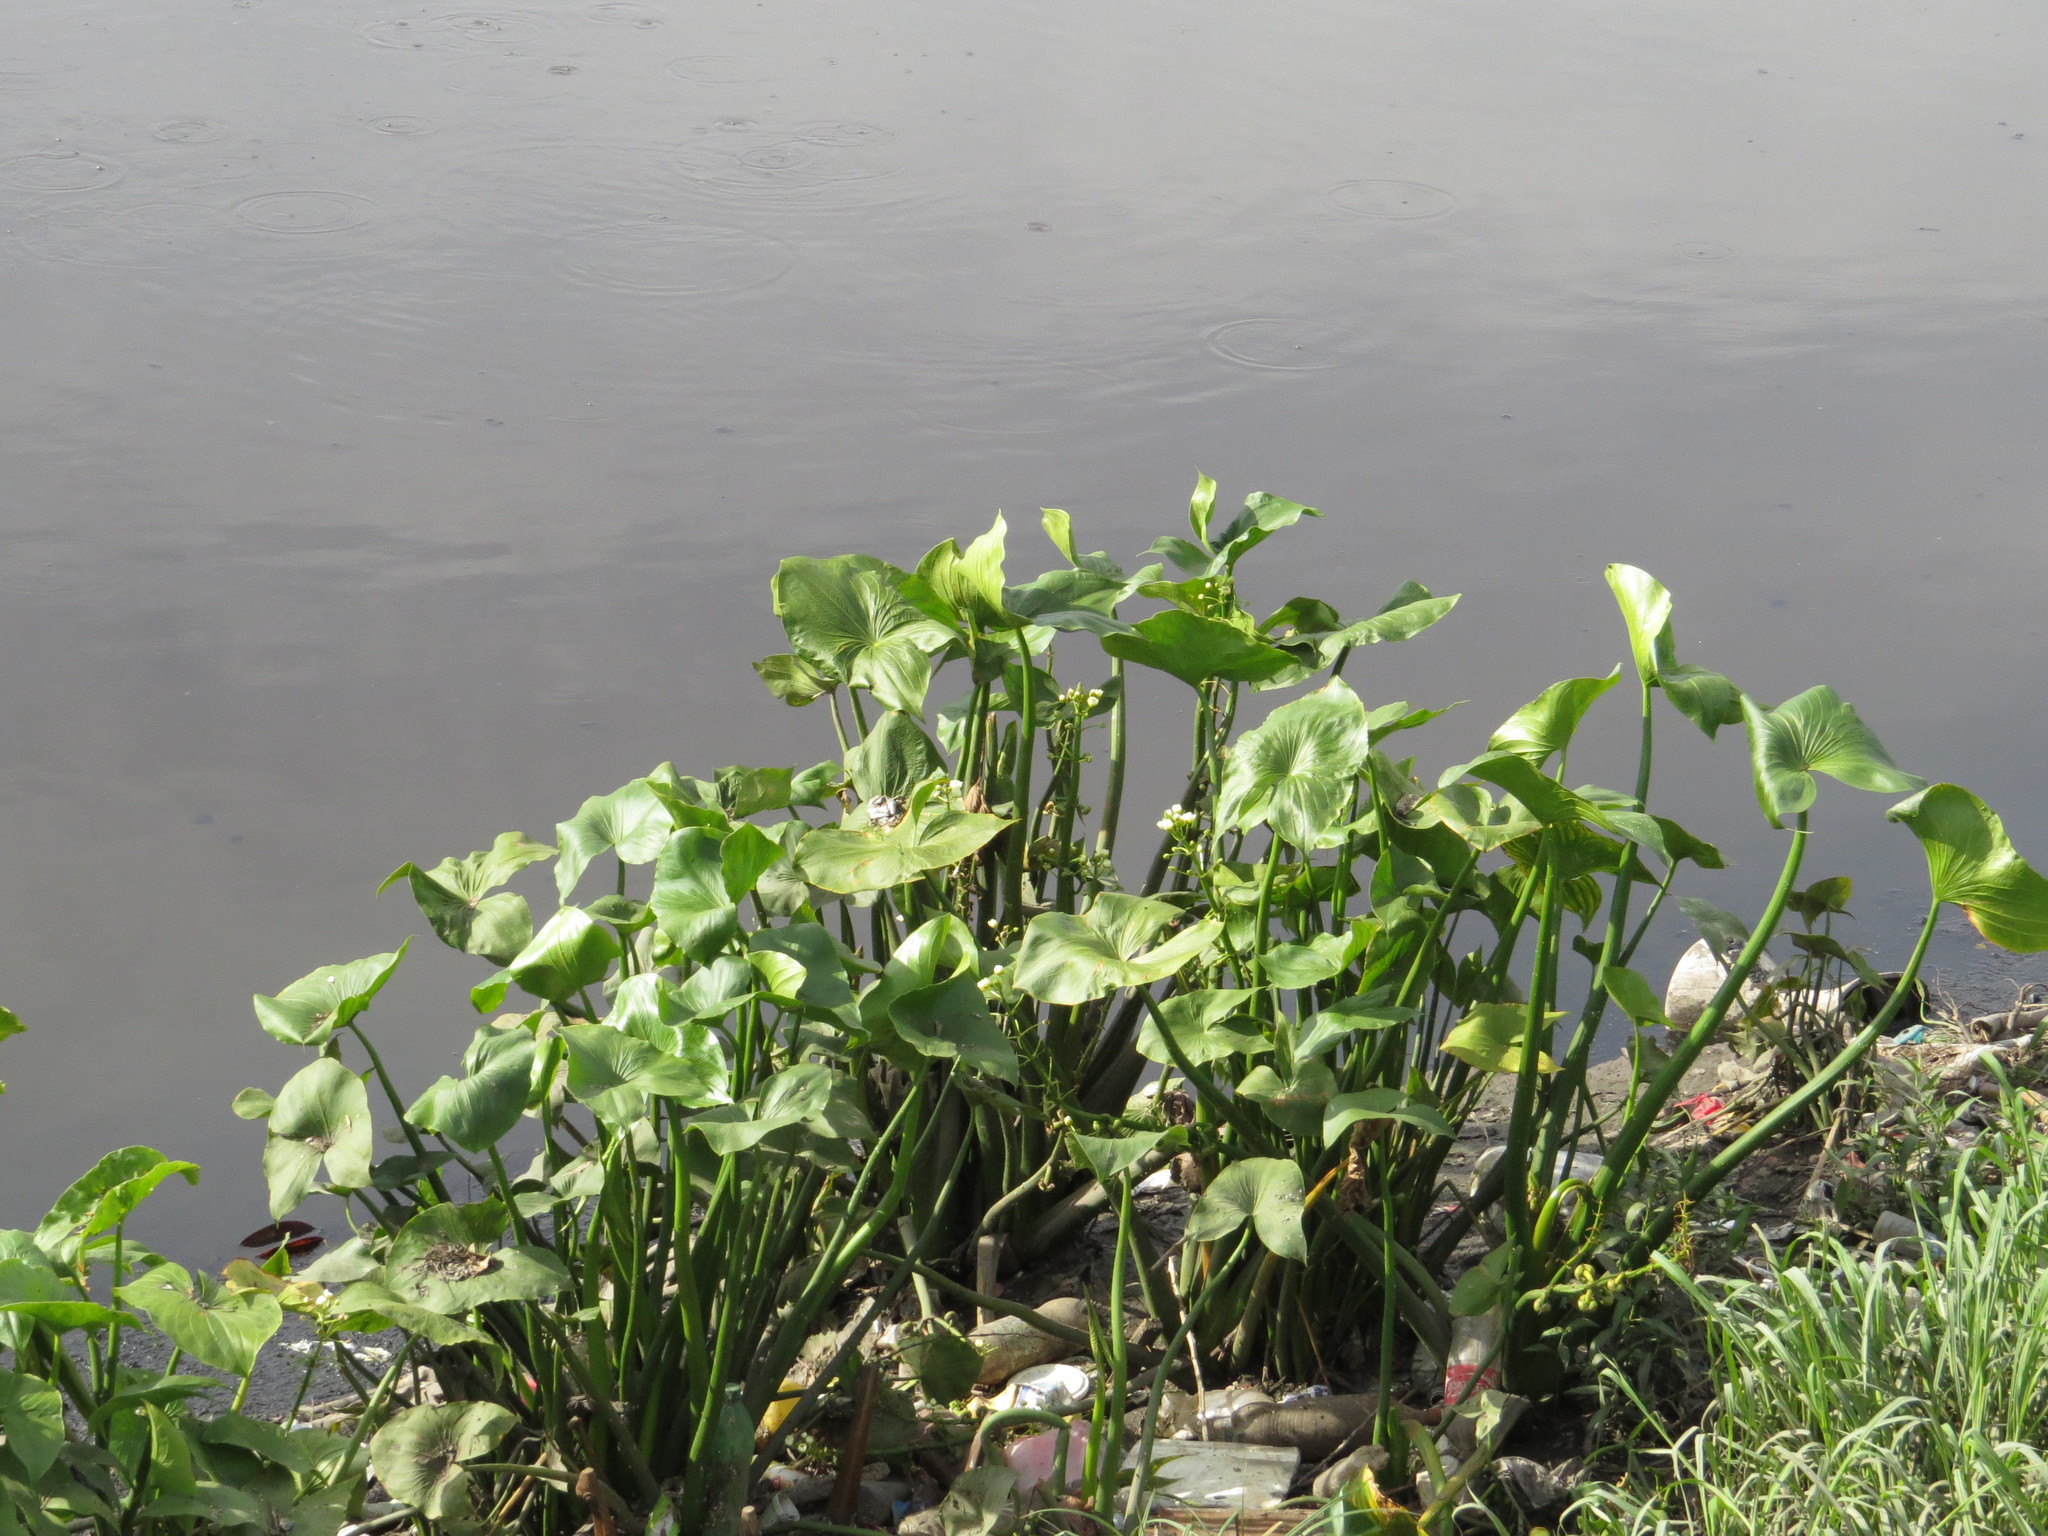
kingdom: Plantae
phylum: Tracheophyta
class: Liliopsida
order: Alismatales
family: Alismataceae
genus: Sagittaria
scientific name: Sagittaria montevidensis
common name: Giant arrowhead
